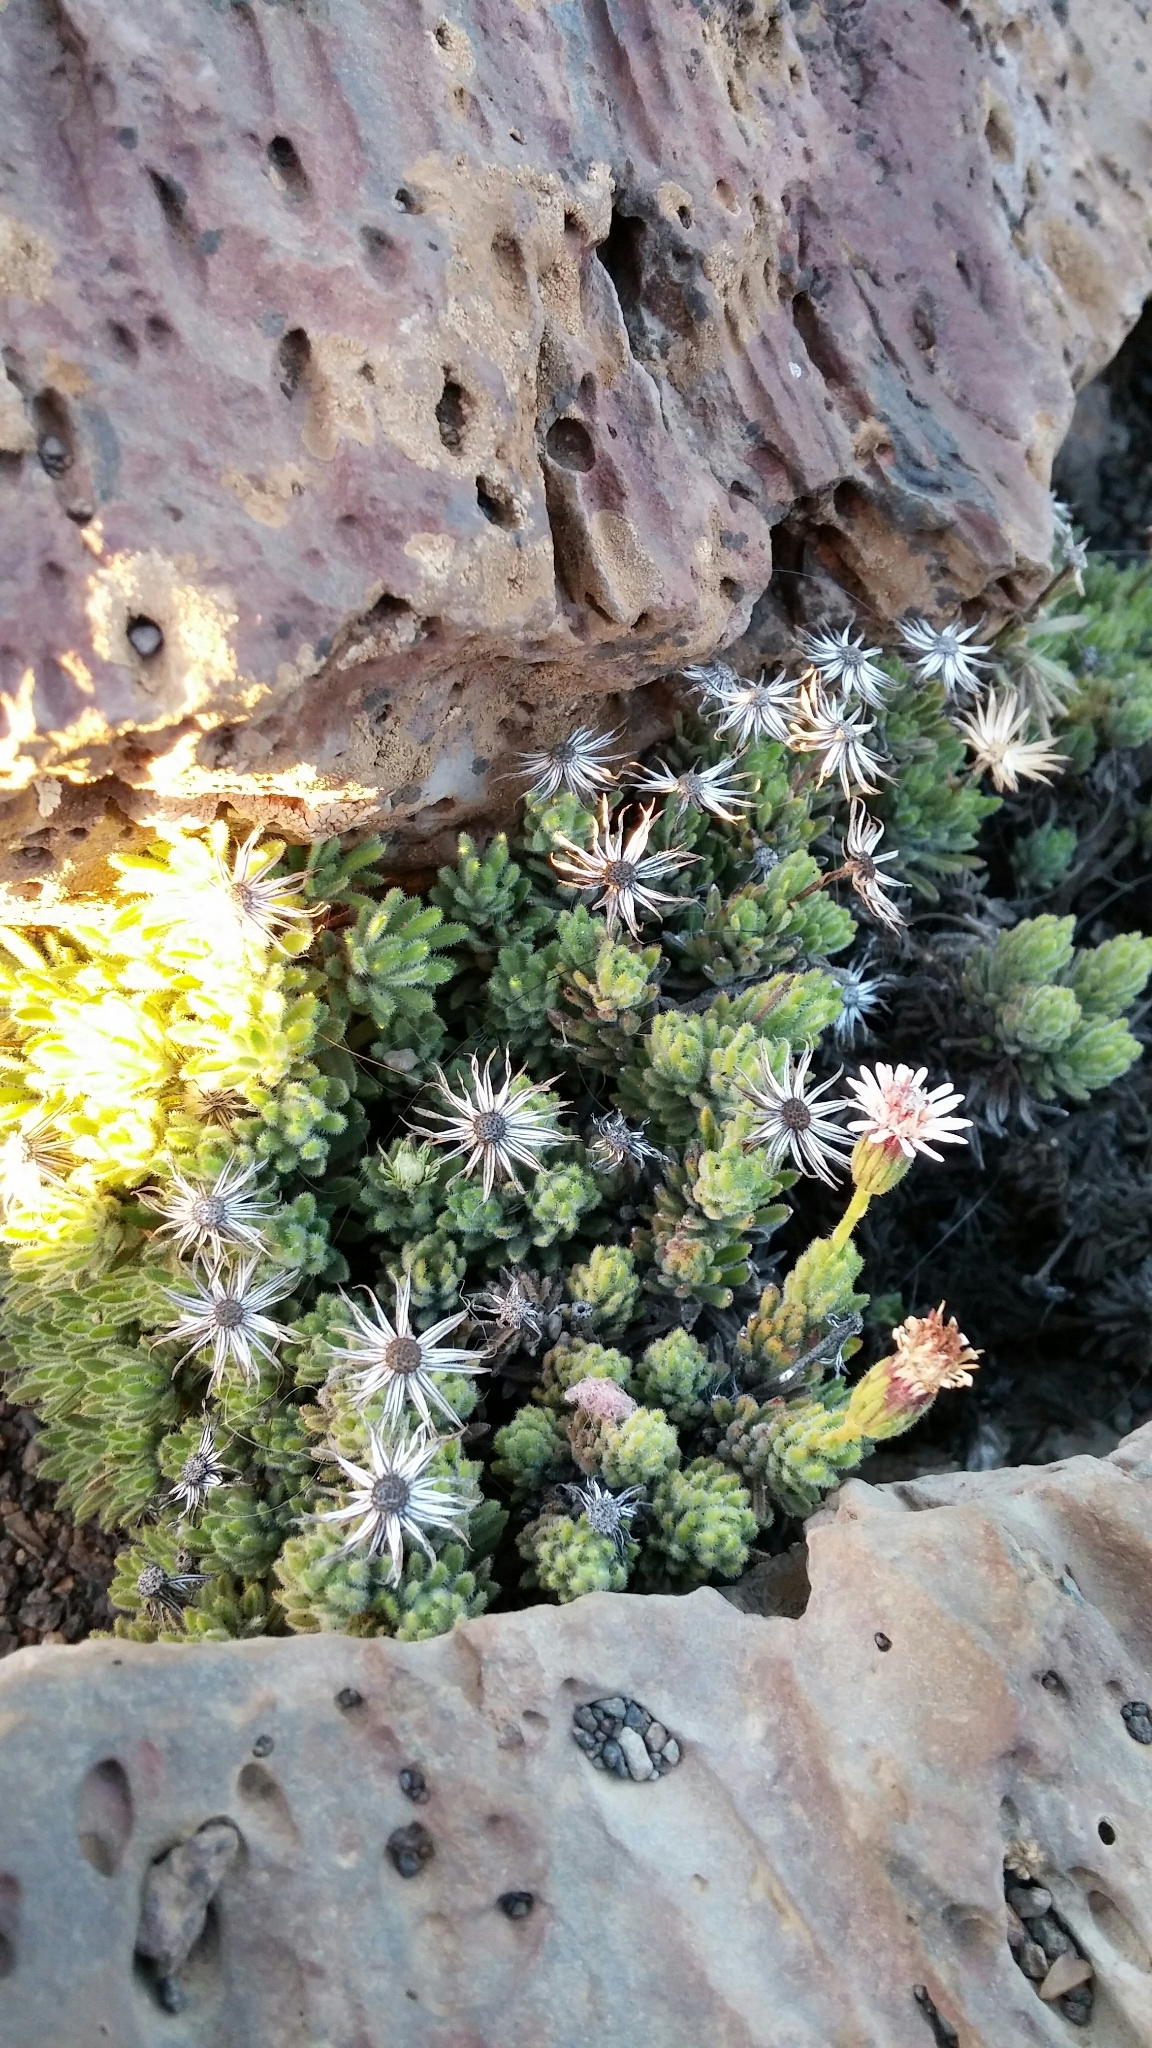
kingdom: Plantae
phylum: Tracheophyta
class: Magnoliopsida
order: Asterales
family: Asteraceae
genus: Tetramolopium
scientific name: Tetramolopium humile
